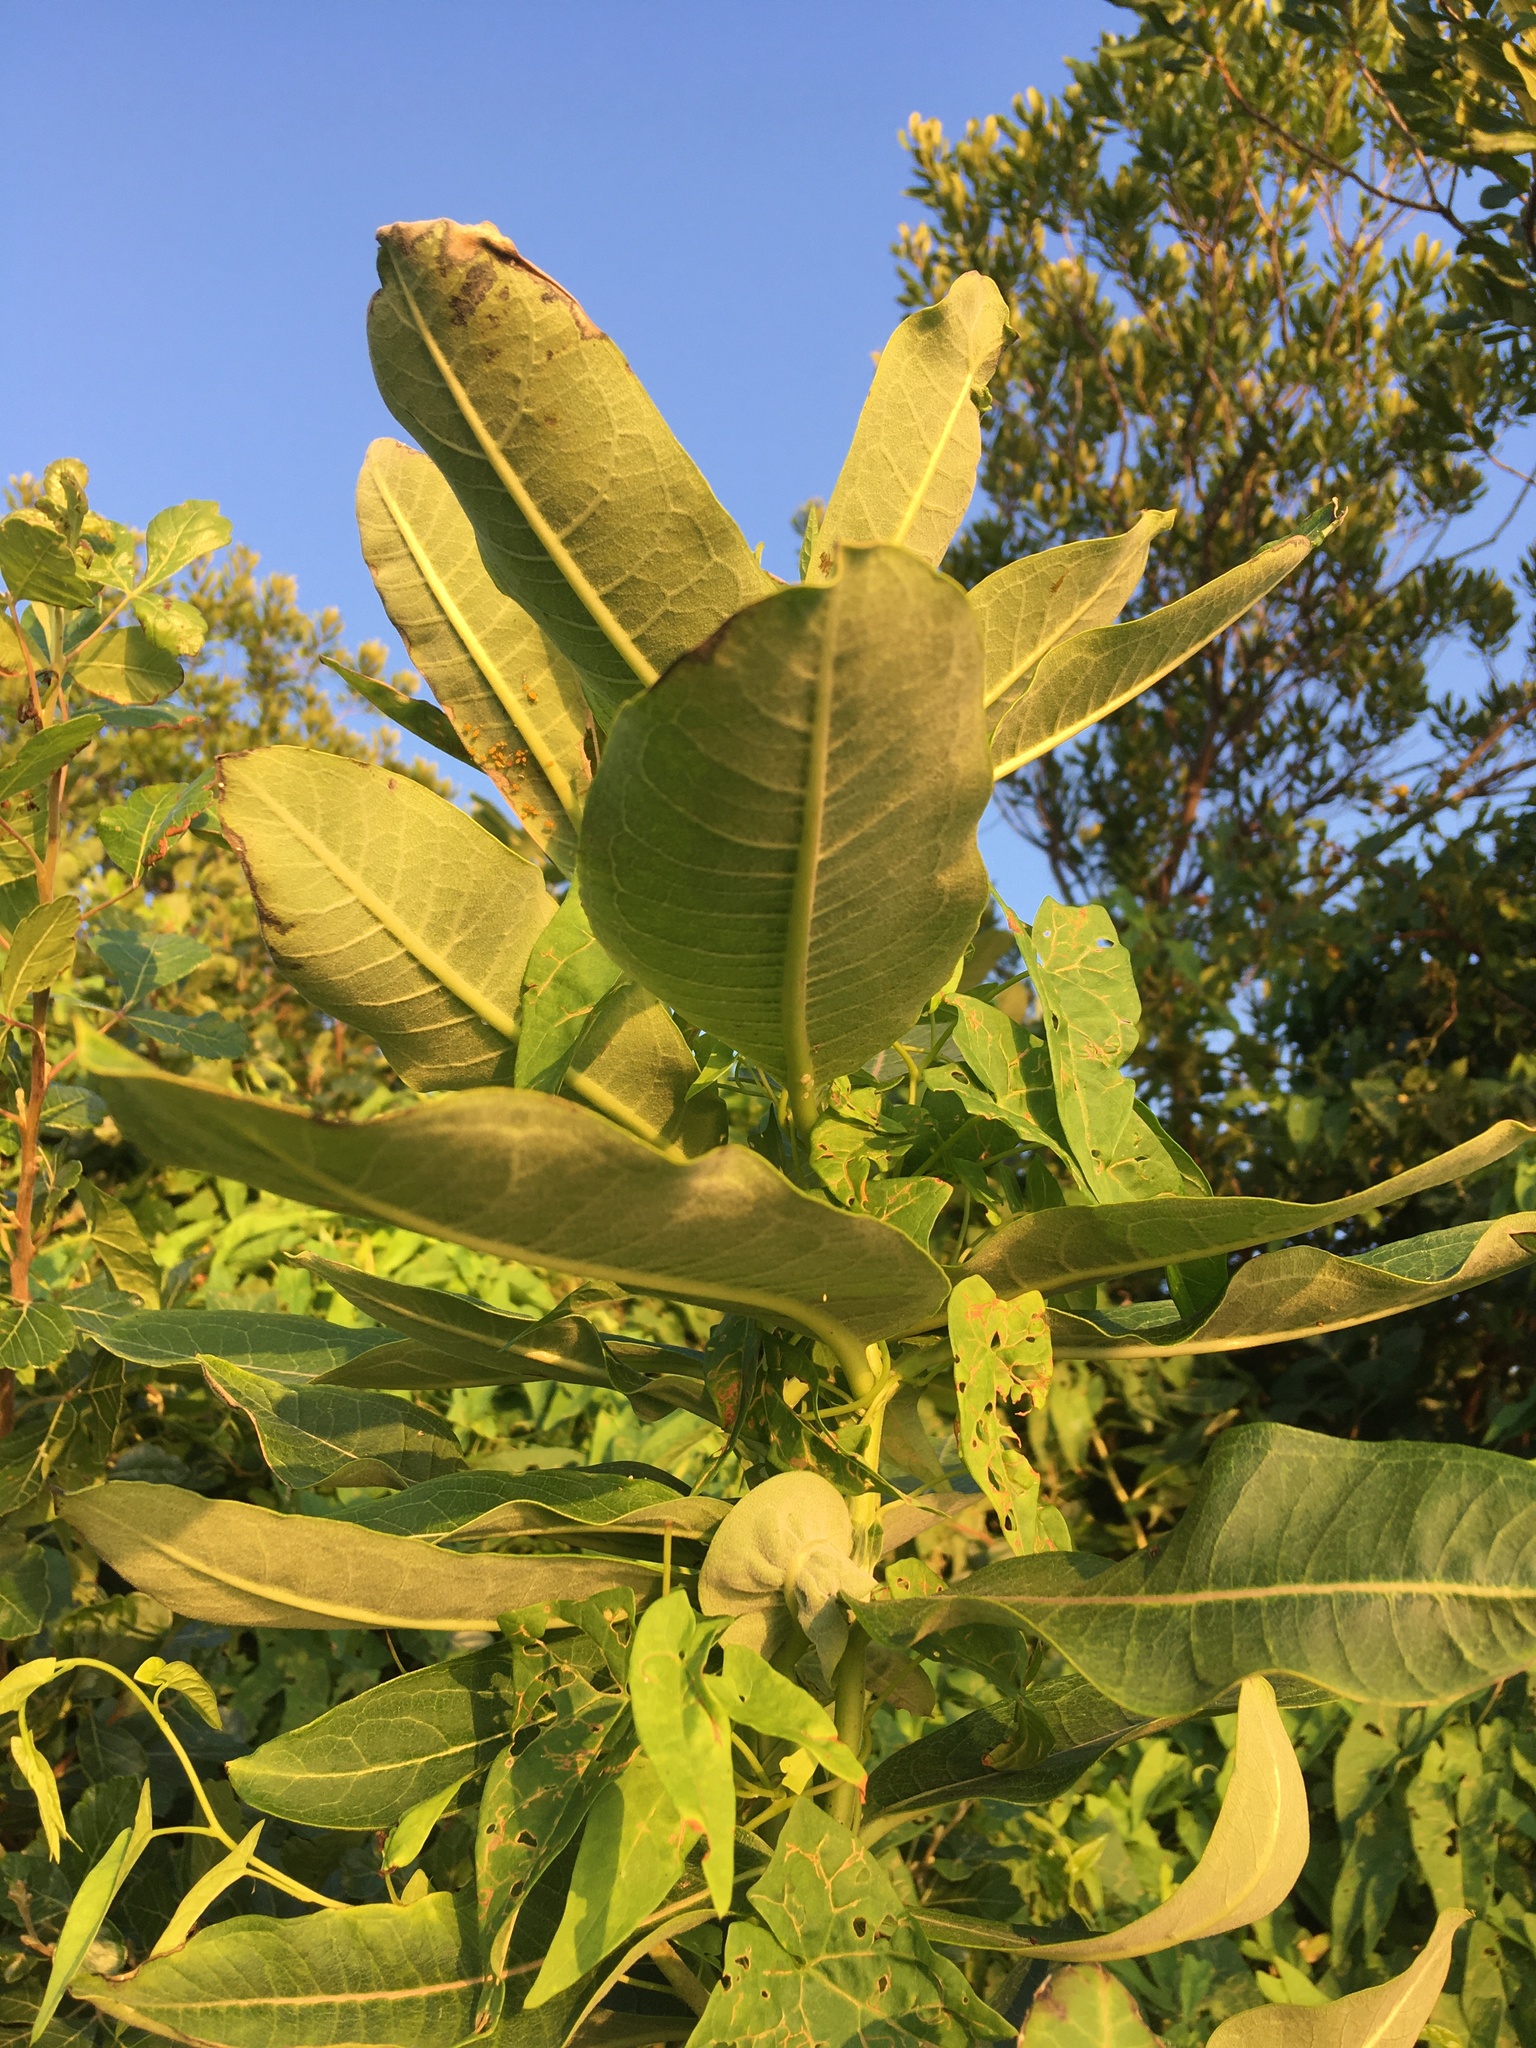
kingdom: Plantae
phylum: Tracheophyta
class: Magnoliopsida
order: Gentianales
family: Apocynaceae
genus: Asclepias
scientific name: Asclepias syriaca
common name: Common milkweed
